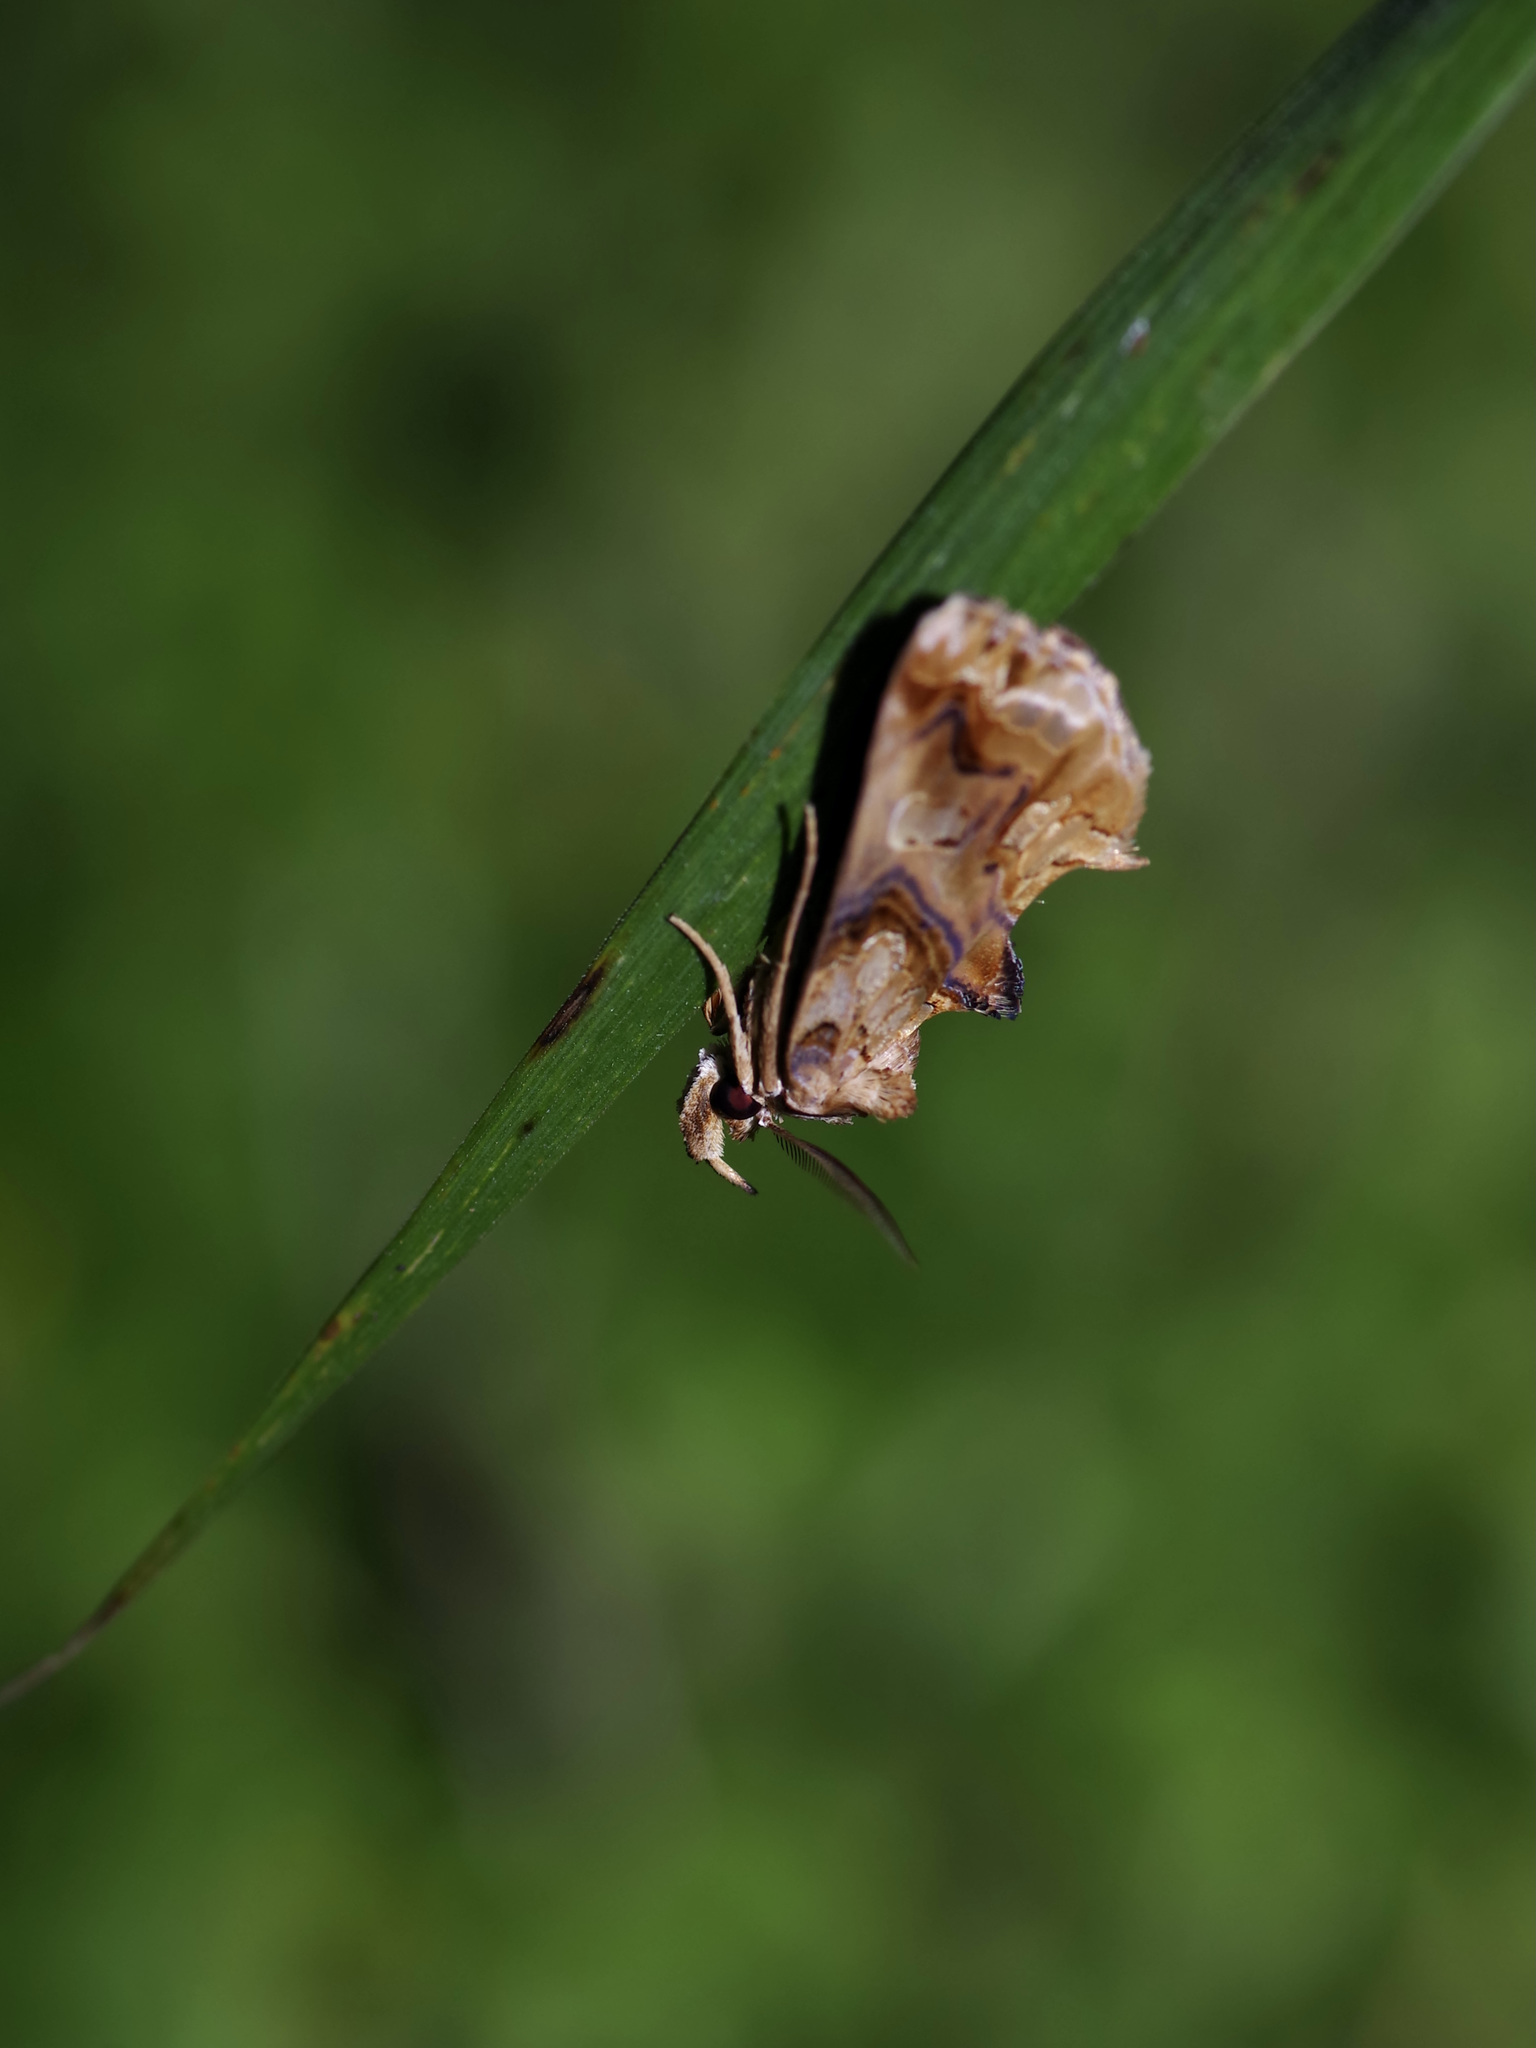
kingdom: Animalia
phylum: Arthropoda
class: Insecta
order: Lepidoptera
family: Erebidae
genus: Plusiodonta
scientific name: Plusiodonta compressipalpis
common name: Moonseed moth
